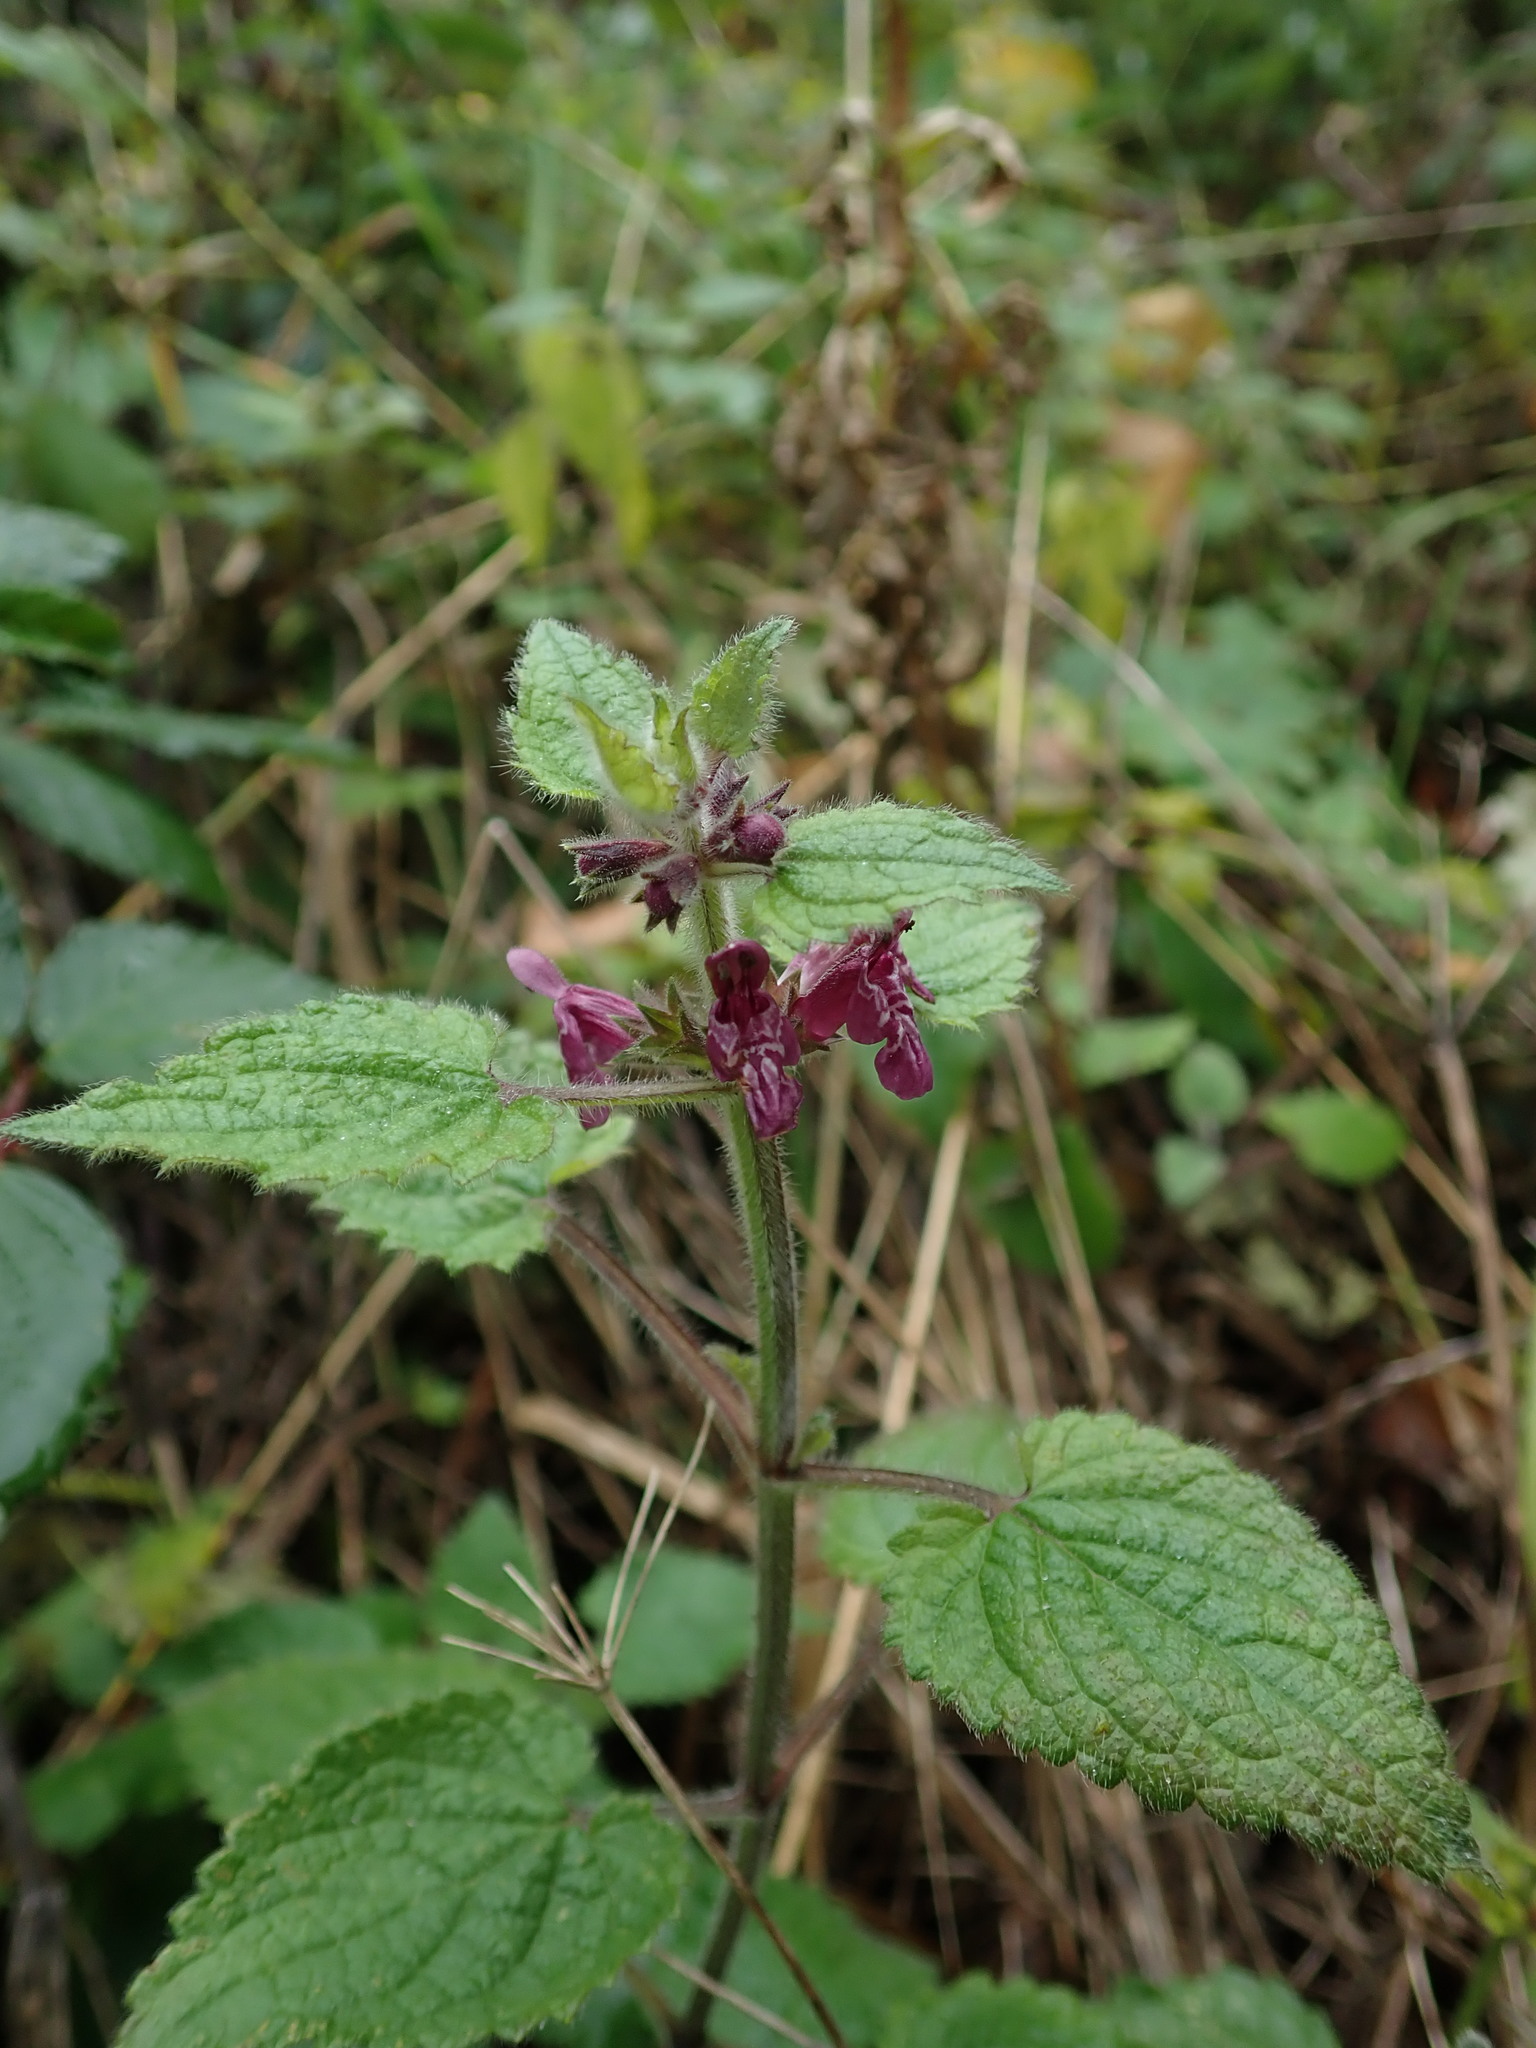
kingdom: Plantae
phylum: Tracheophyta
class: Magnoliopsida
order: Lamiales
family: Lamiaceae
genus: Stachys
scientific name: Stachys sylvatica
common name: Hedge woundwort
